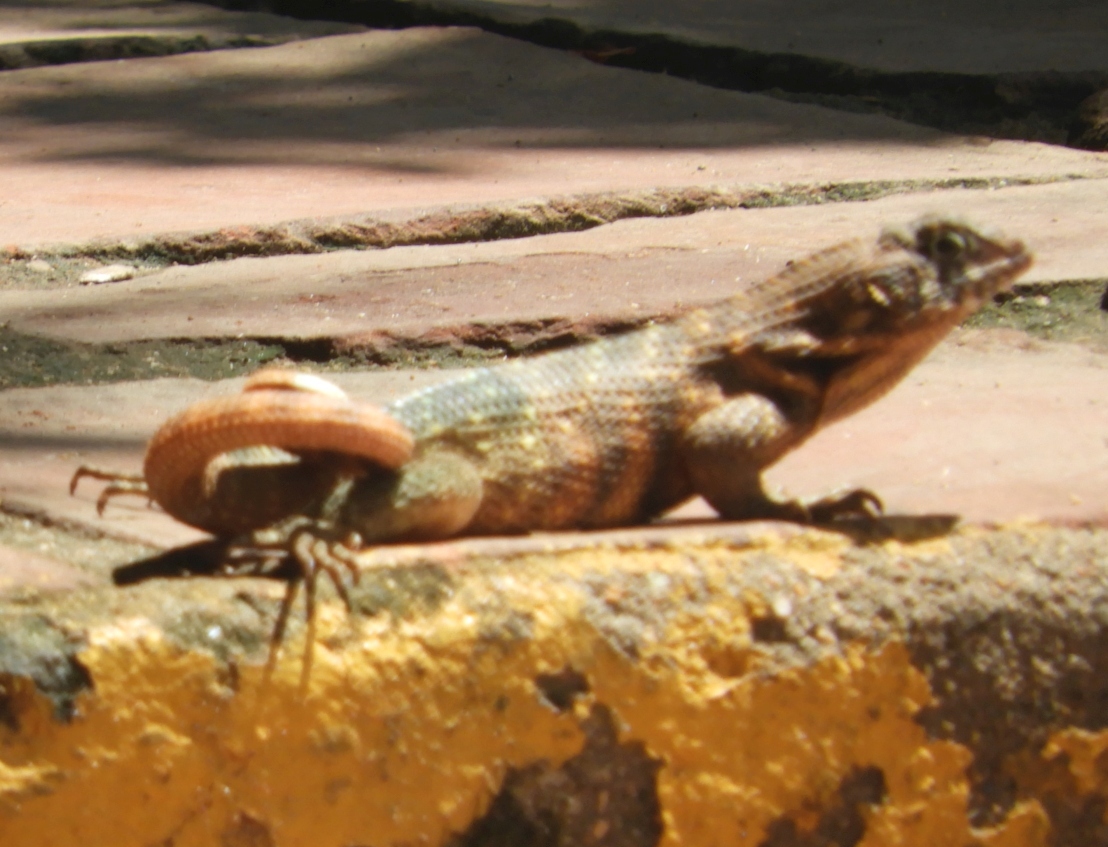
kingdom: Animalia
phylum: Chordata
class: Squamata
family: Leiocephalidae
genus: Leiocephalus
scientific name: Leiocephalus carinatus
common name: Northern curly-tailed lizard
